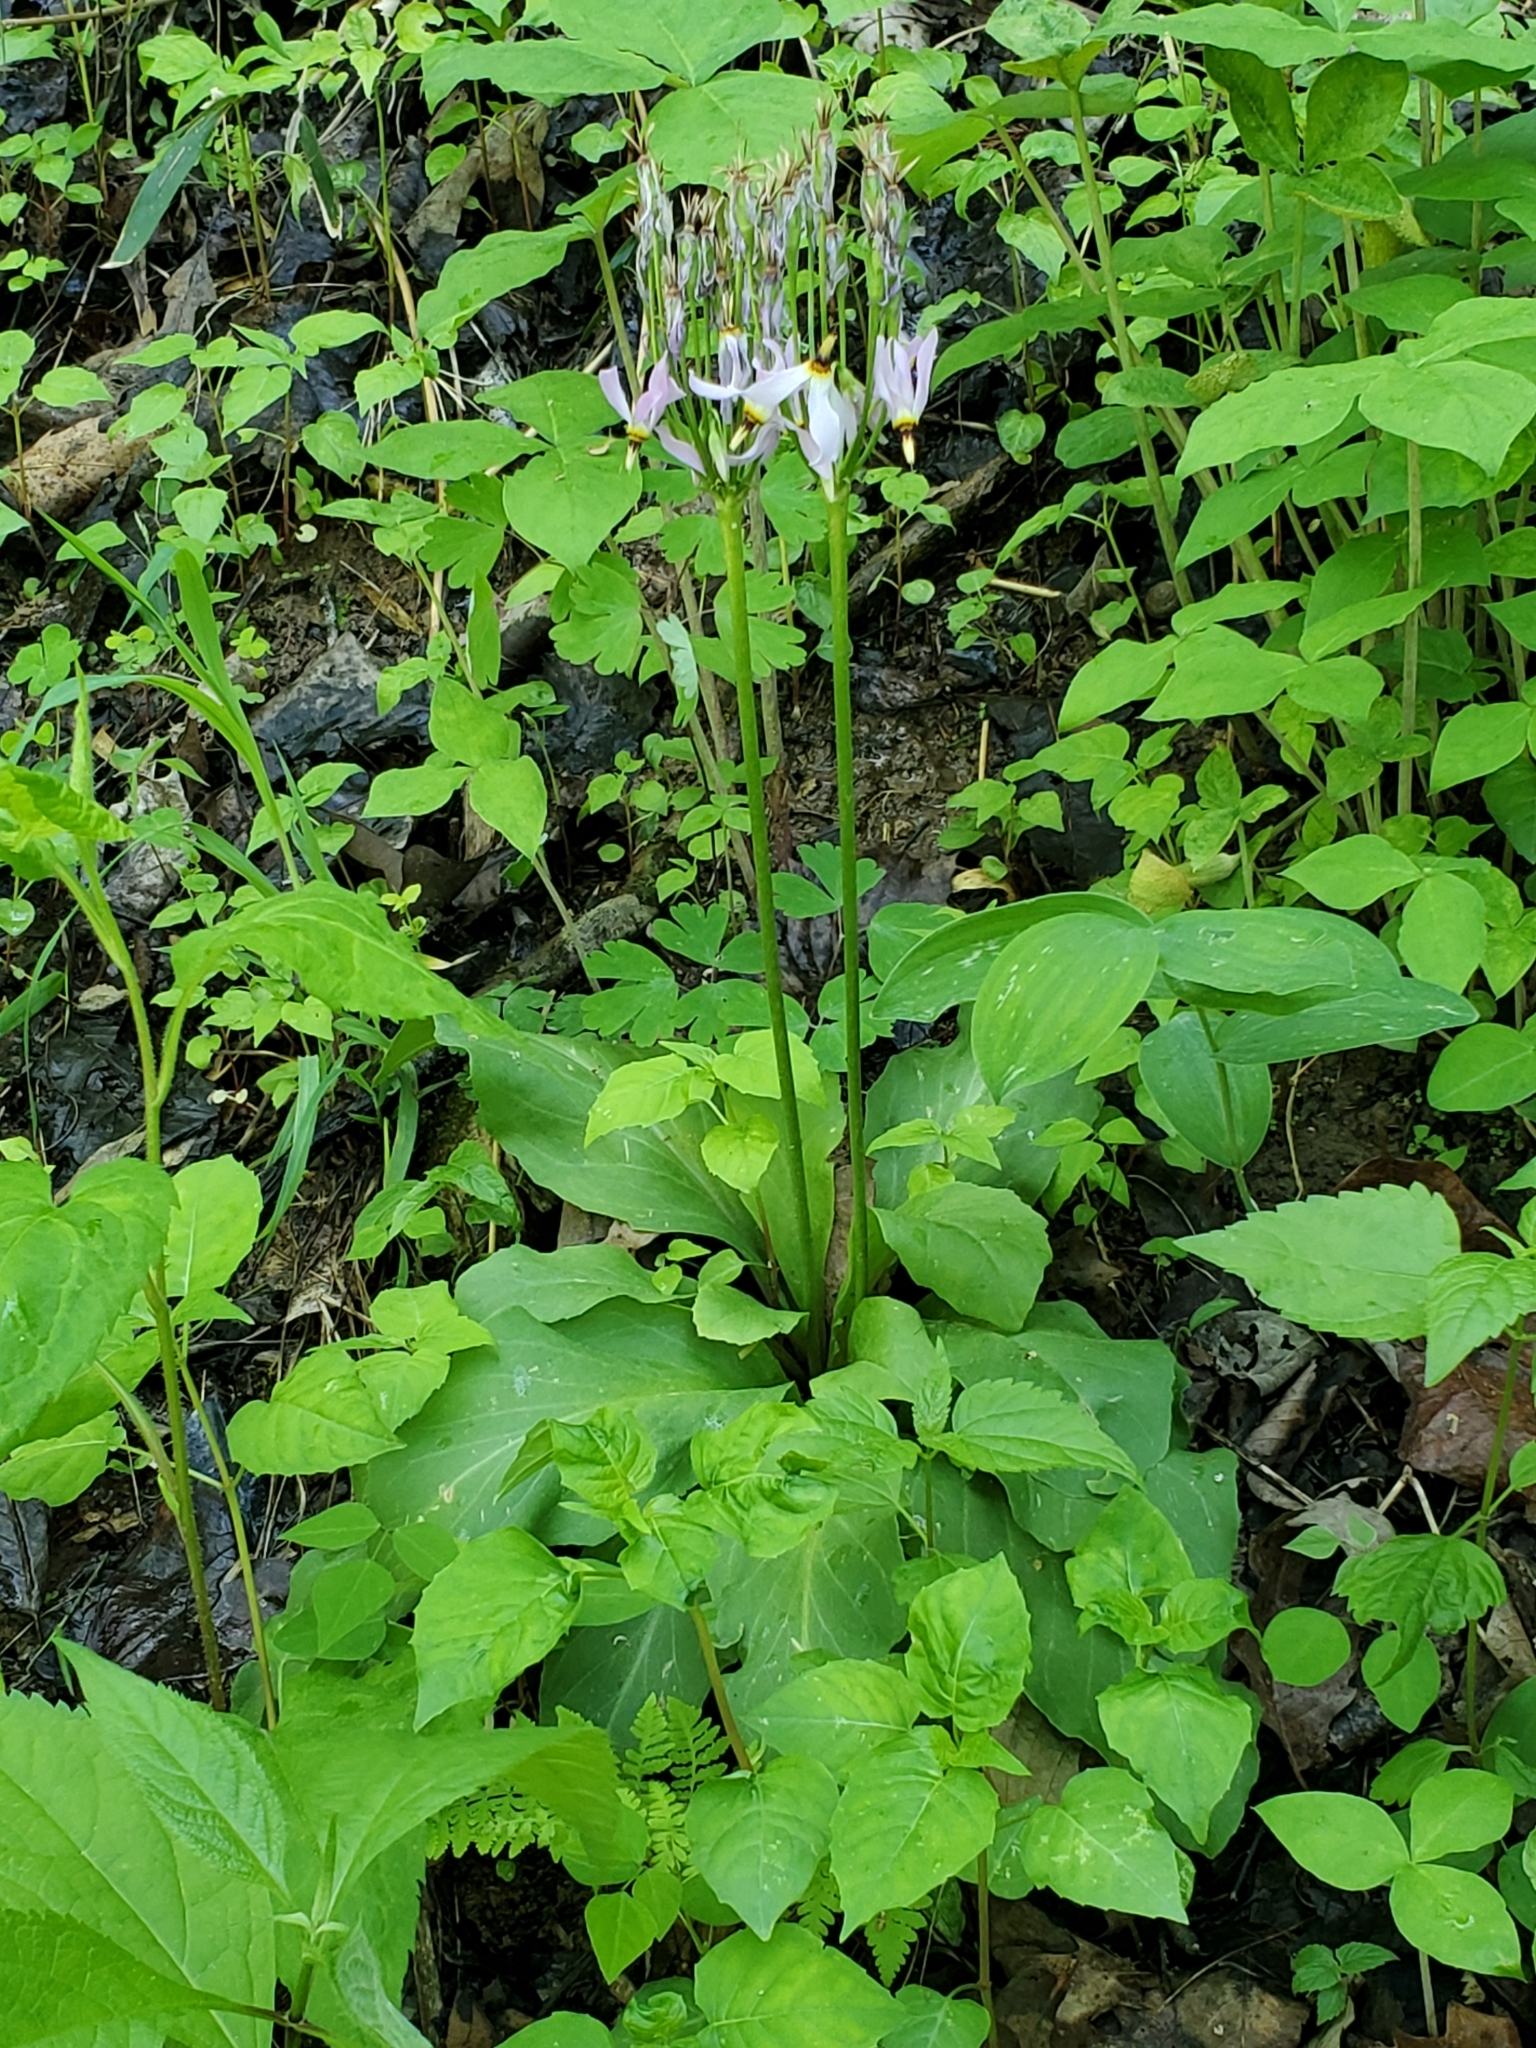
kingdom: Plantae
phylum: Tracheophyta
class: Magnoliopsida
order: Ericales
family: Primulaceae
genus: Dodecatheon
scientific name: Dodecatheon meadia
